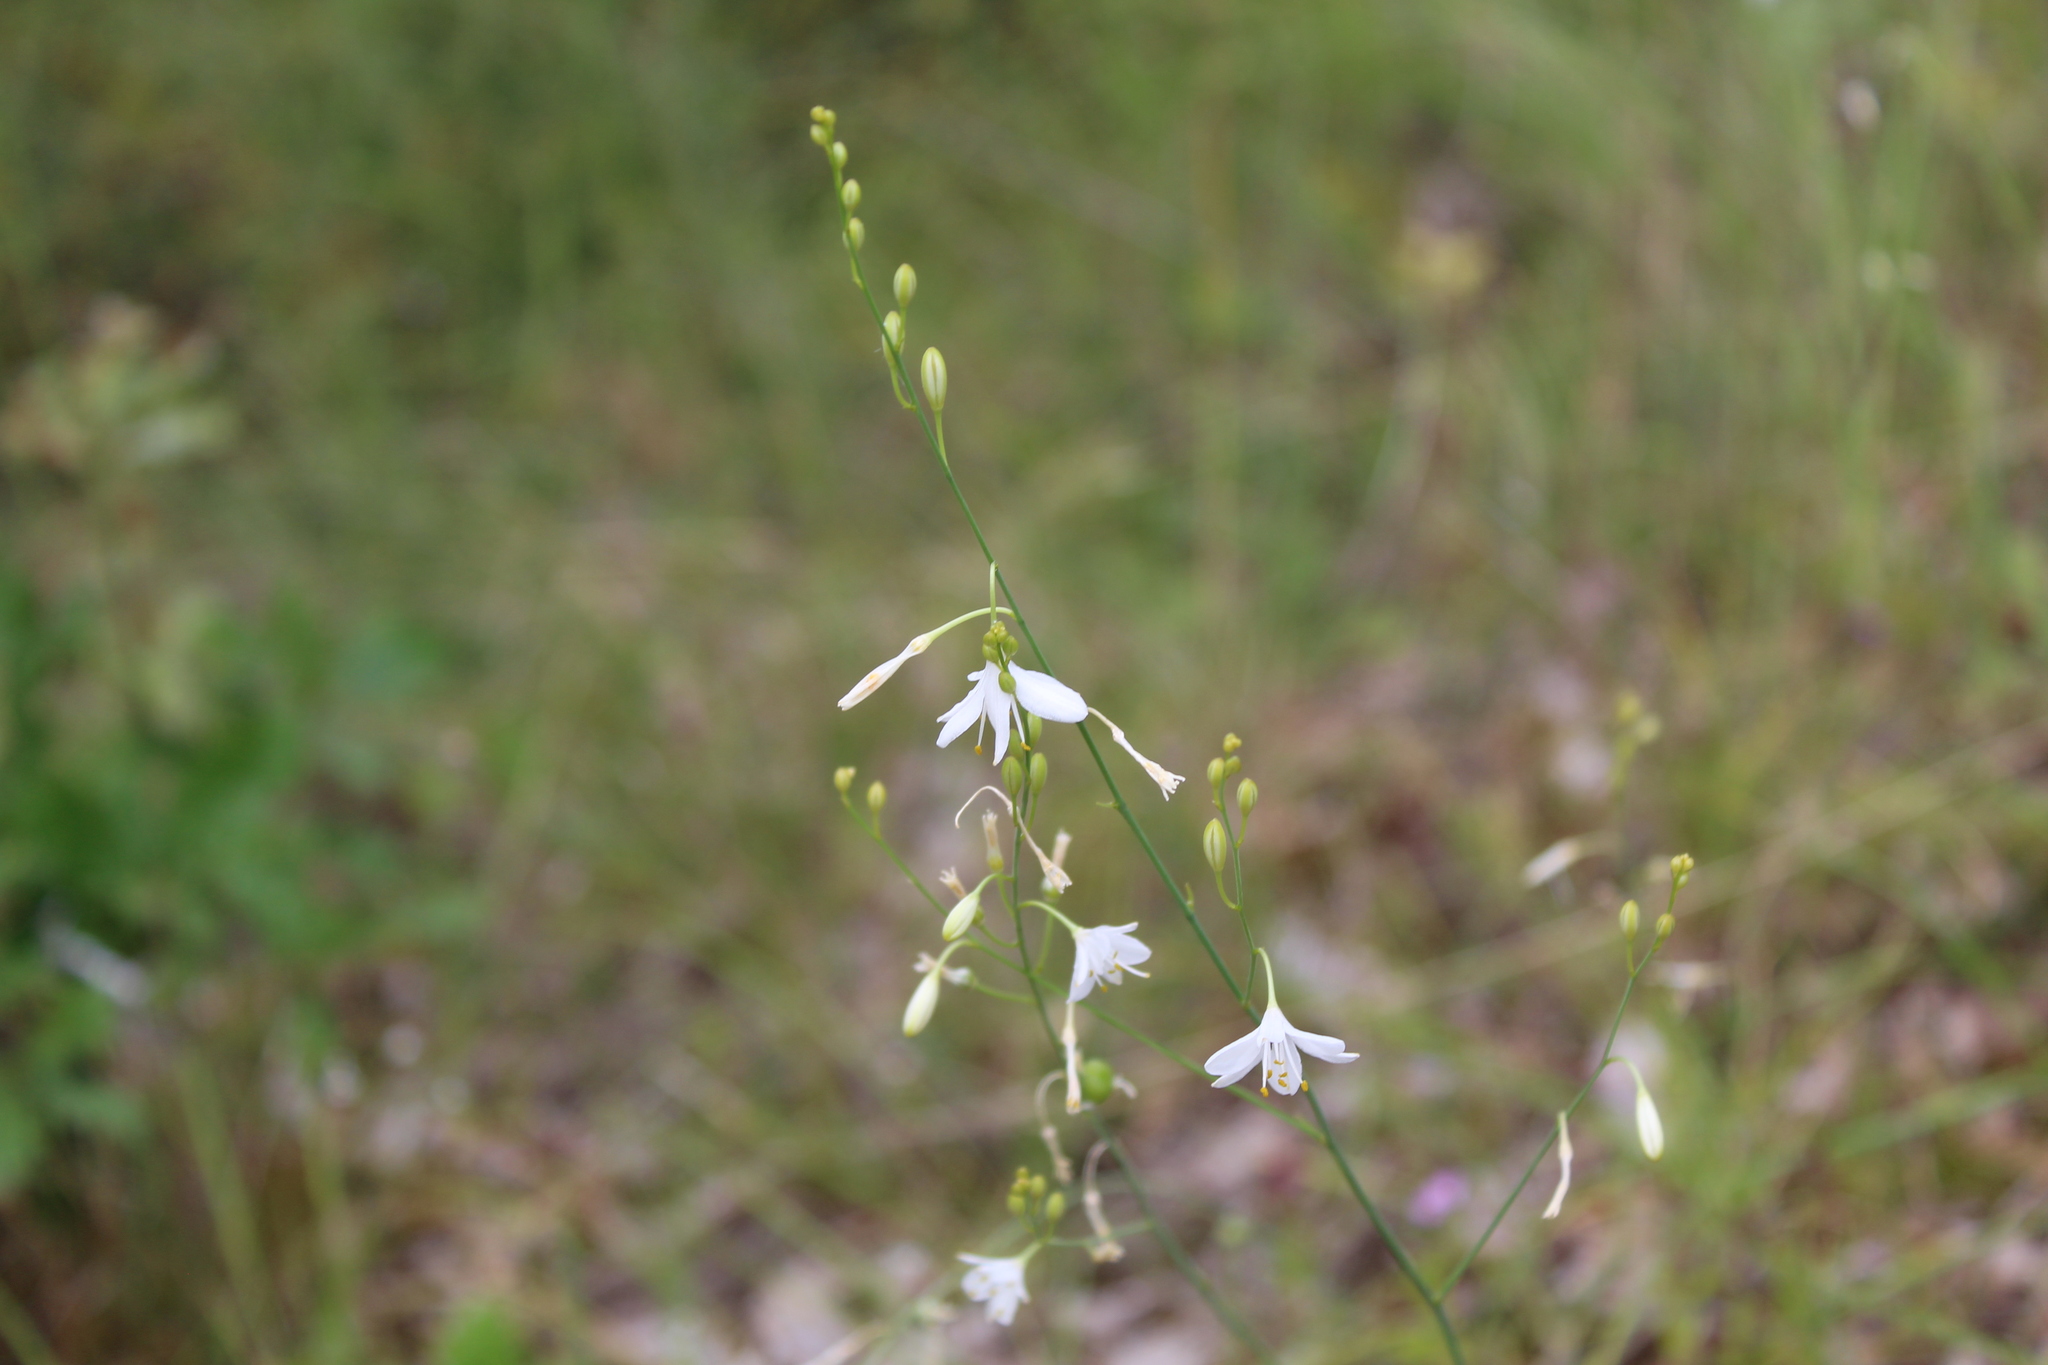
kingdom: Plantae
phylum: Tracheophyta
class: Liliopsida
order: Asparagales
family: Asparagaceae
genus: Anthericum
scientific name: Anthericum ramosum
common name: Branched st. bernard's-lily
